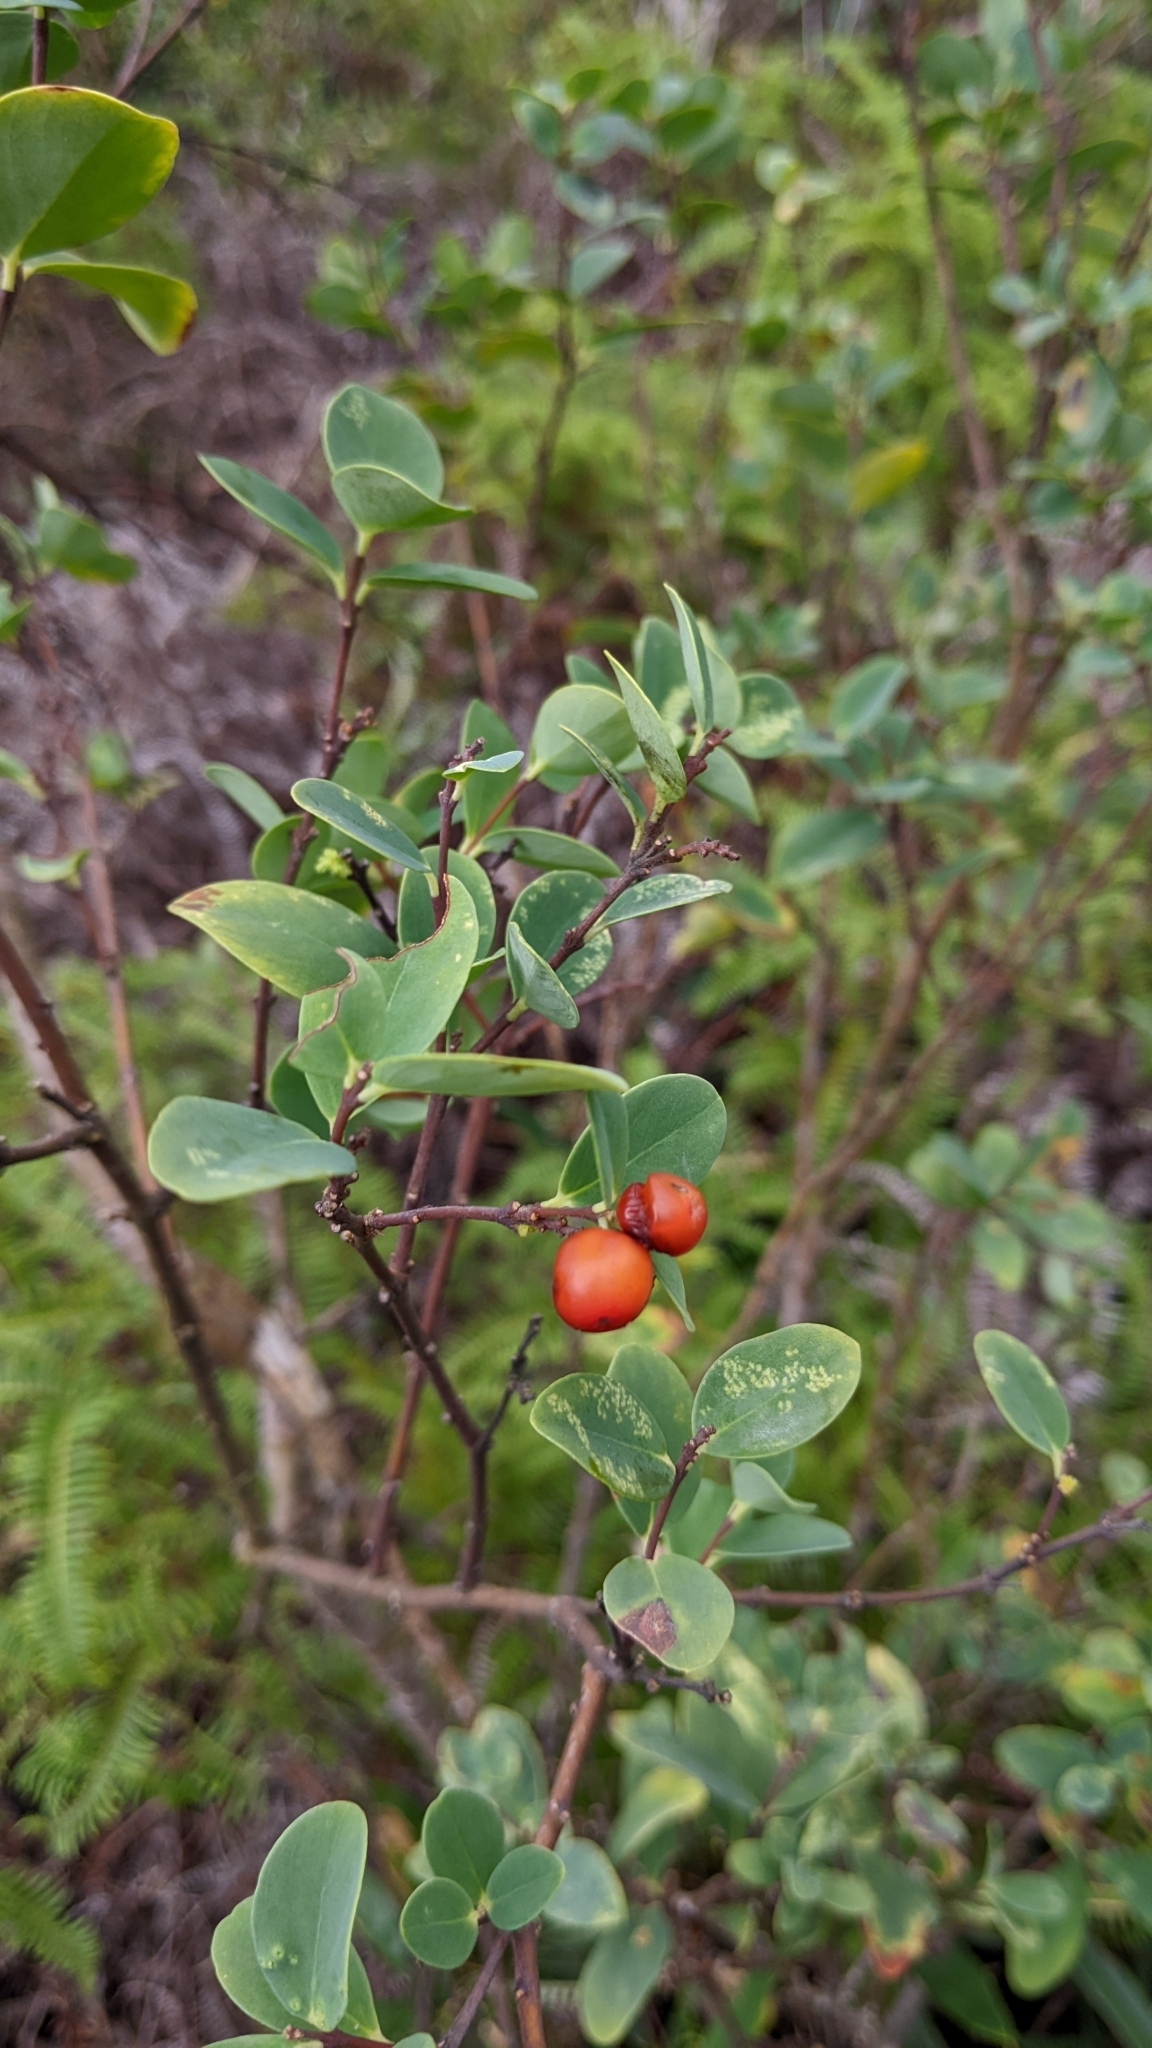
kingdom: Plantae
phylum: Tracheophyta
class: Magnoliopsida
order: Malvales
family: Thymelaeaceae
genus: Wikstroemia
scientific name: Wikstroemia indica
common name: Tiebush
